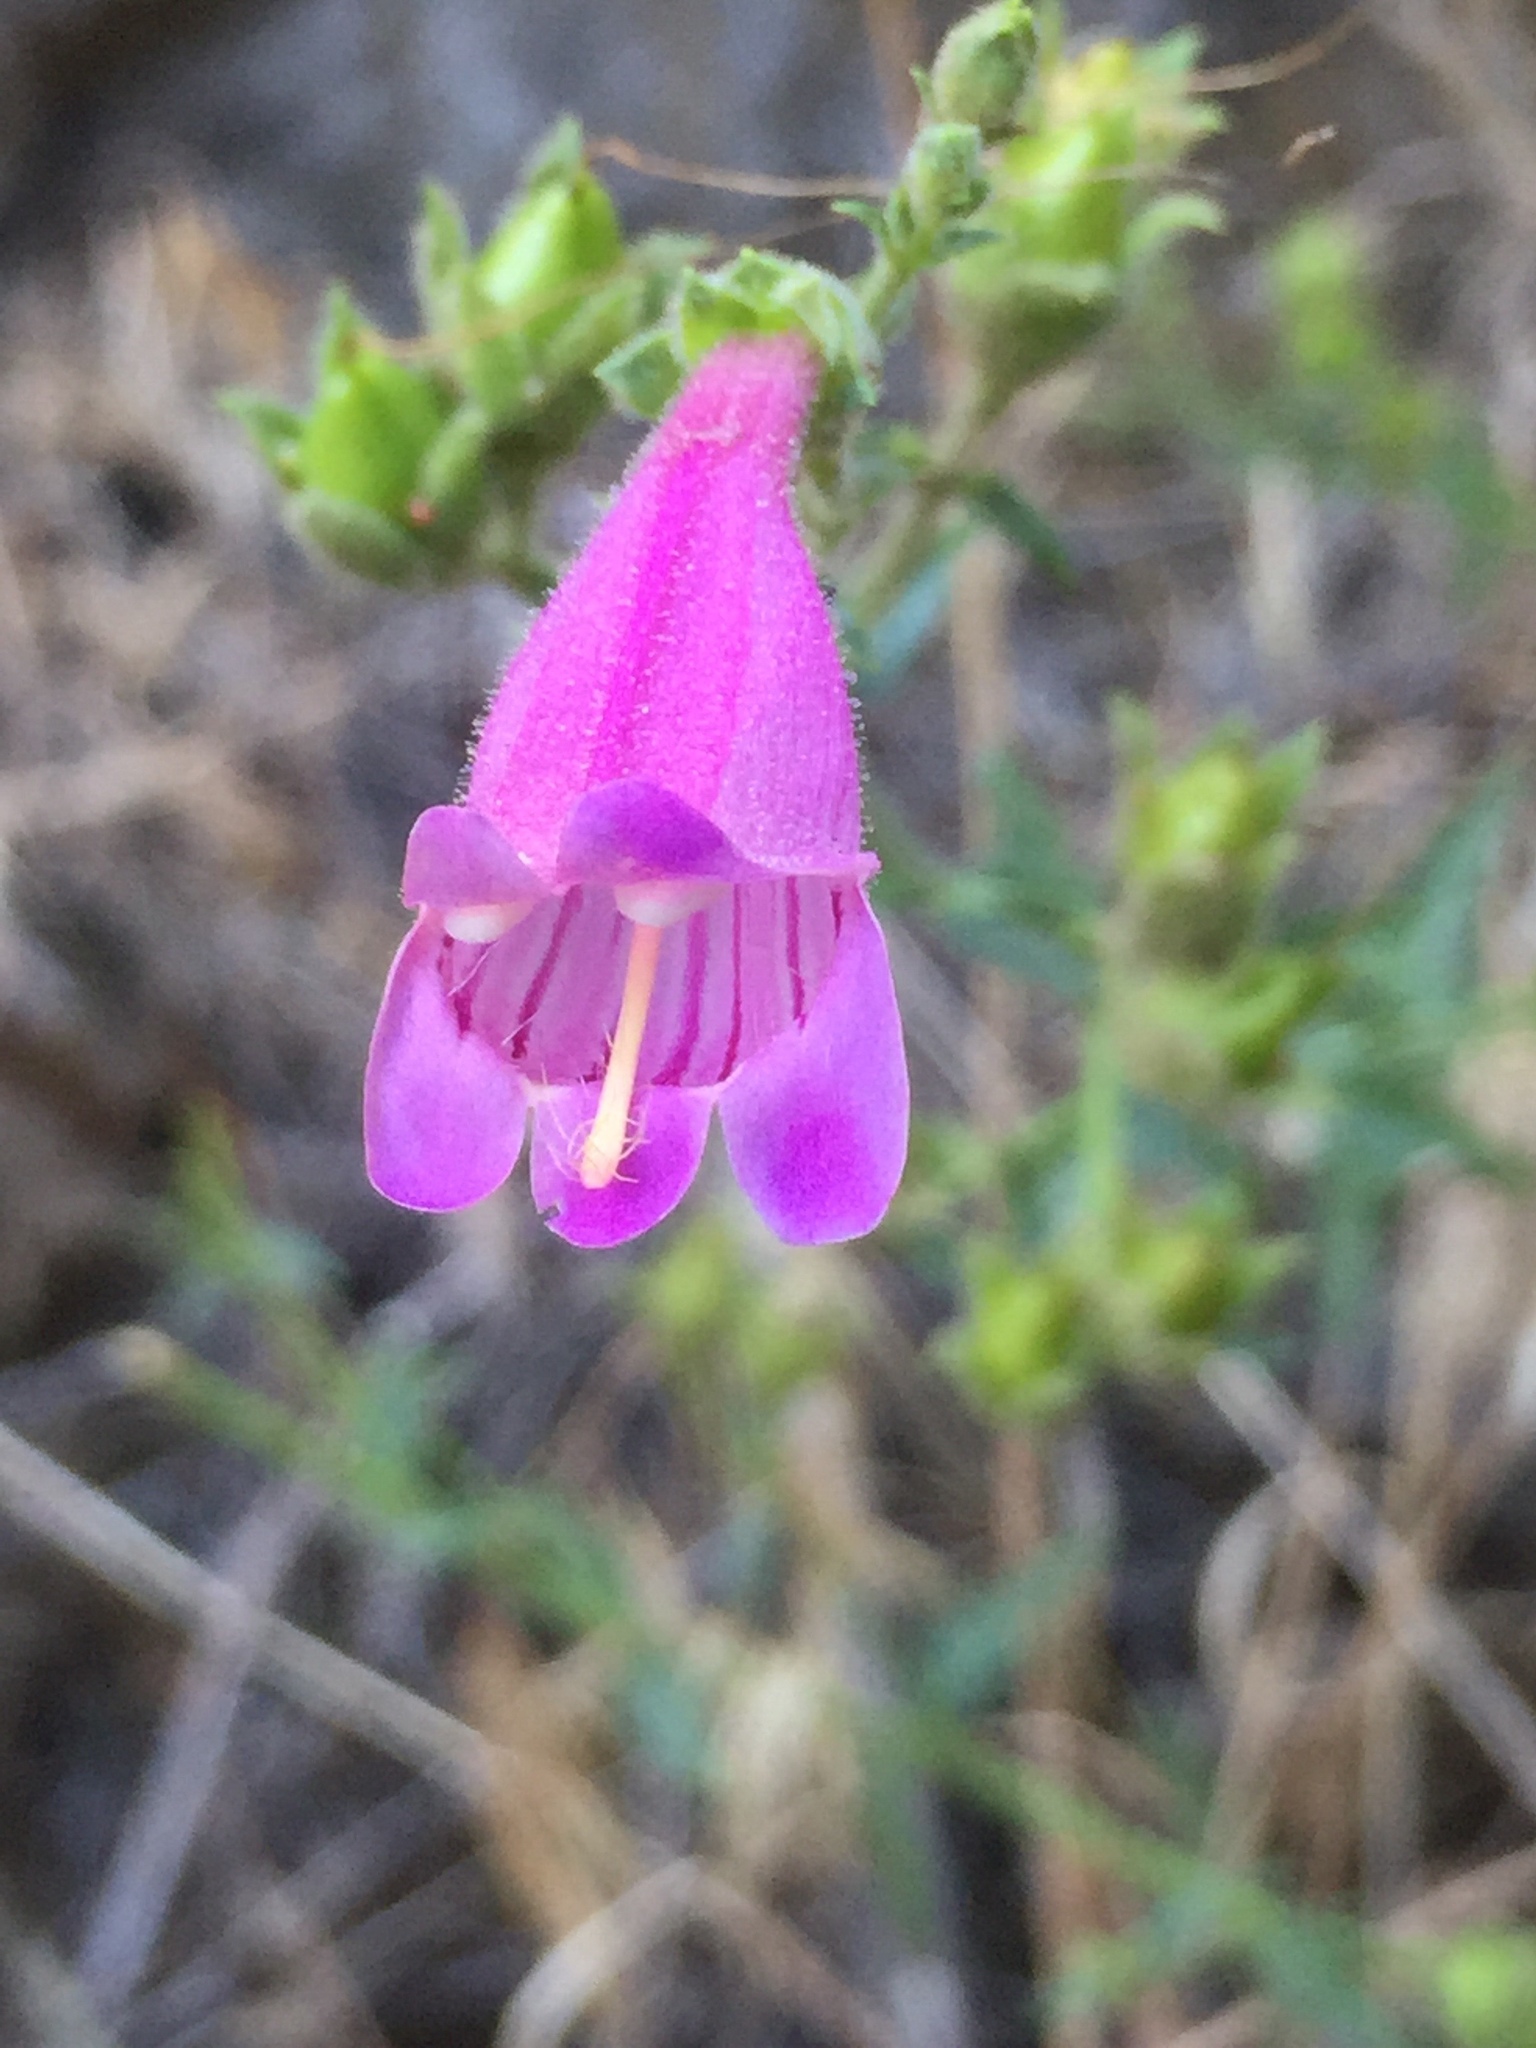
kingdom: Plantae
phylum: Tracheophyta
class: Magnoliopsida
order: Lamiales
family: Plantaginaceae
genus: Penstemon
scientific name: Penstemon richardsonii
